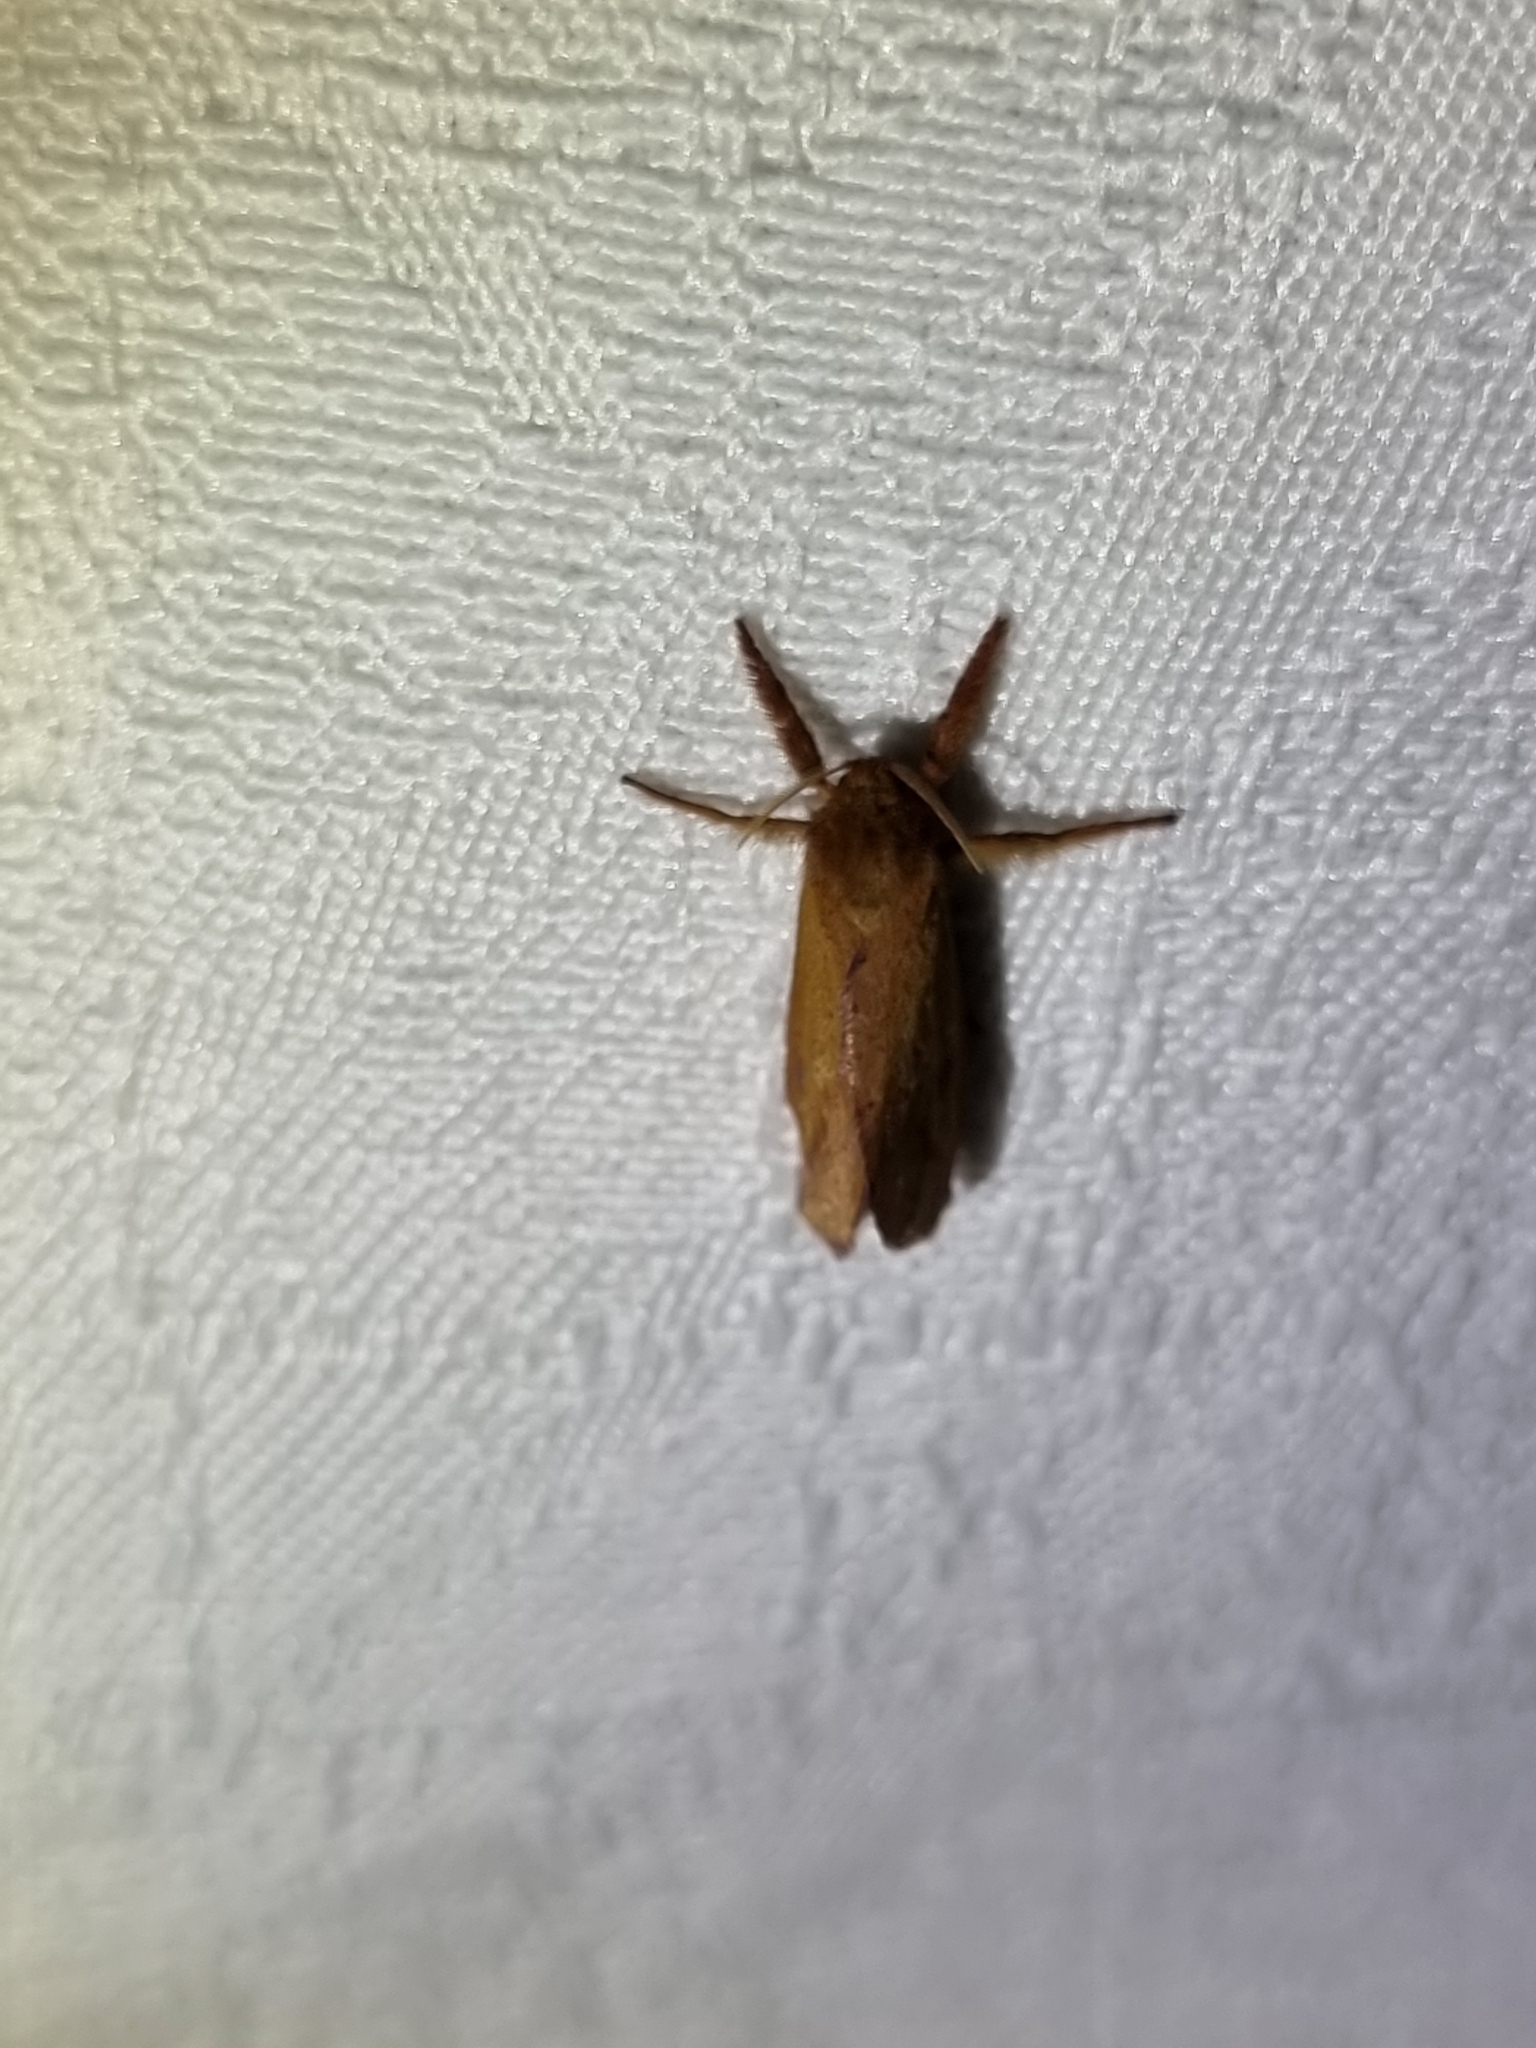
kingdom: Animalia
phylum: Arthropoda
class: Insecta
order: Lepidoptera
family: Hepialidae
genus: Fraus
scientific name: Fraus crocea
